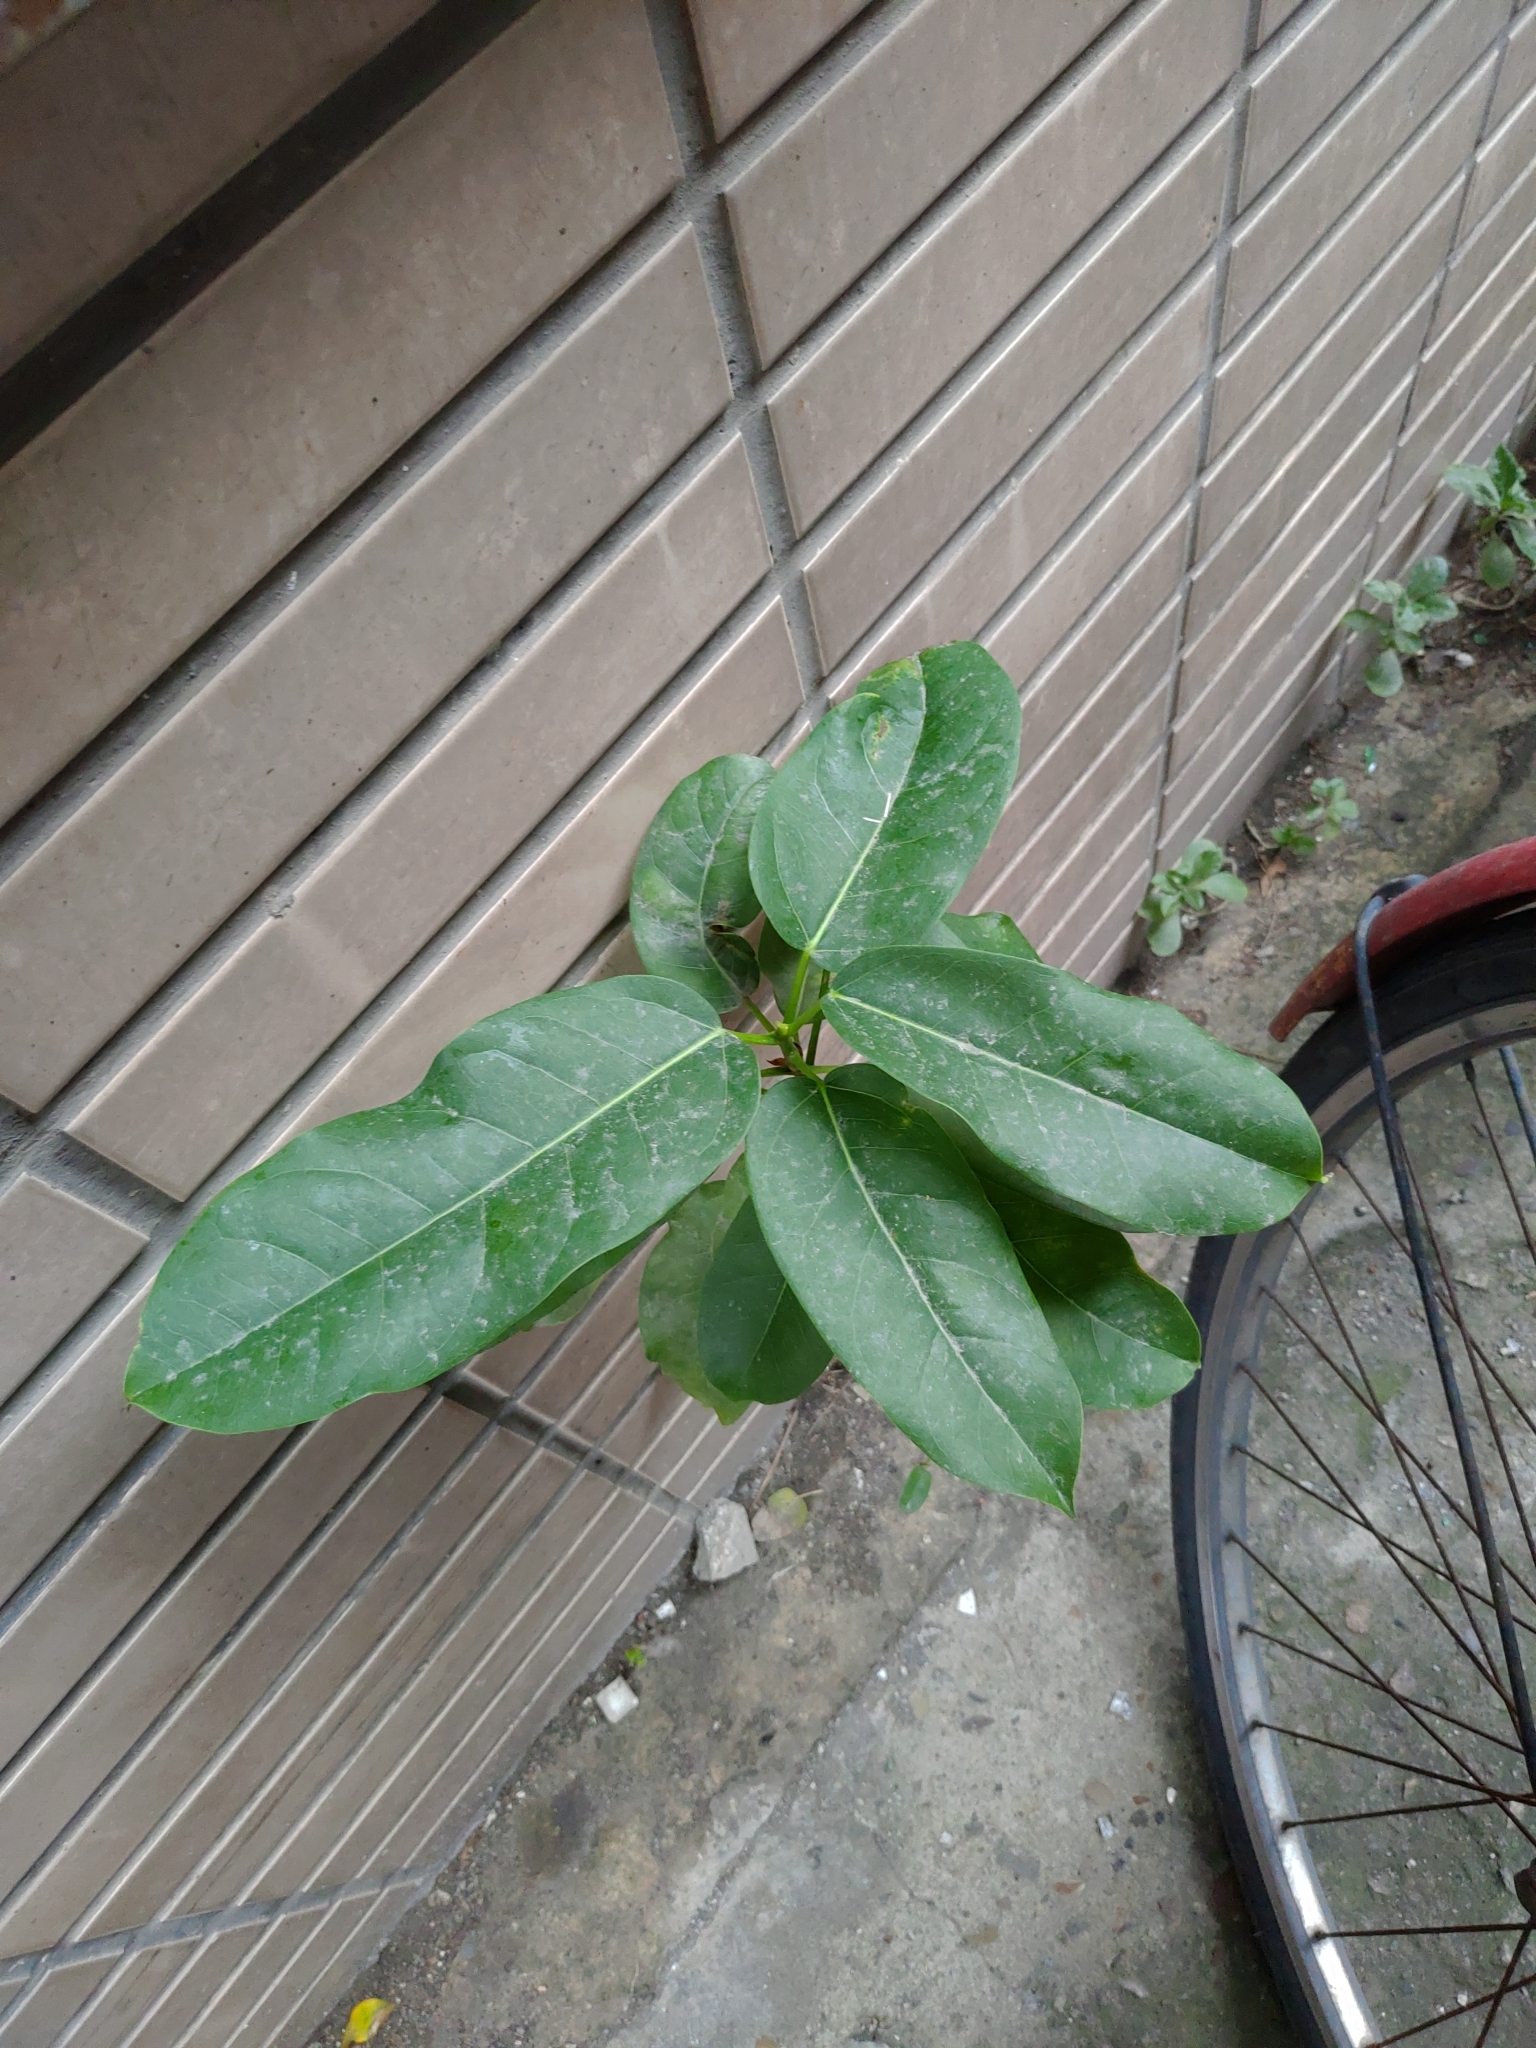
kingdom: Plantae
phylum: Tracheophyta
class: Magnoliopsida
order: Rosales
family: Moraceae
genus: Ficus
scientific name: Ficus subpisocarpa
